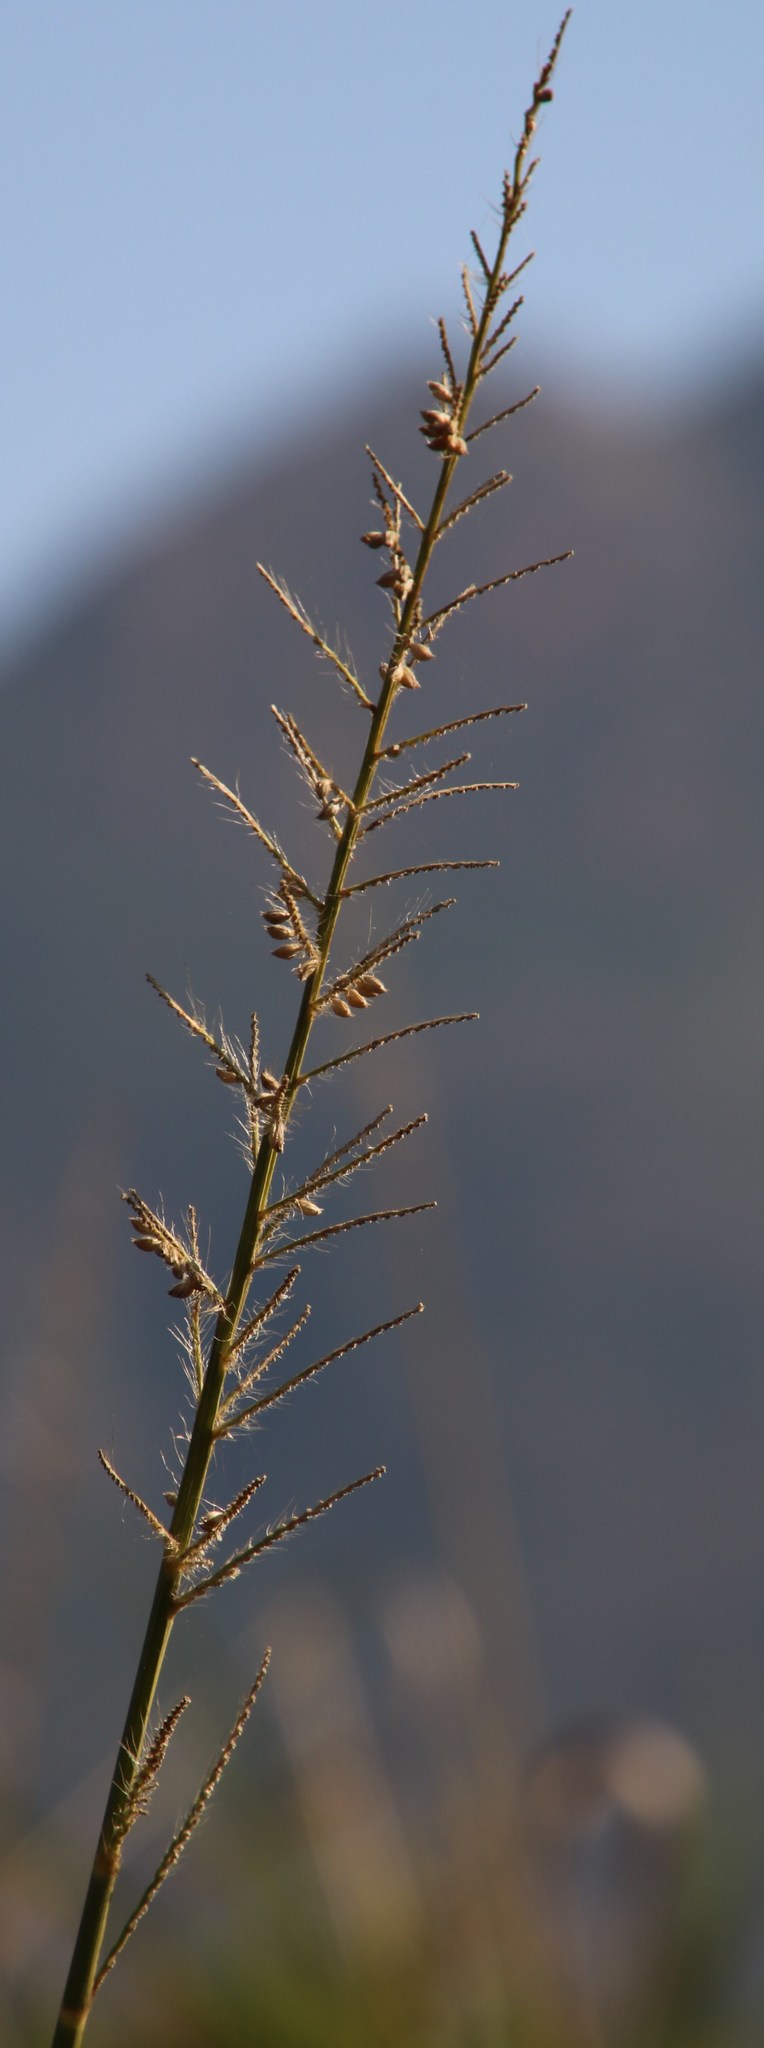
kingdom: Plantae
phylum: Tracheophyta
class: Liliopsida
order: Poales
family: Poaceae
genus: Echinochloa
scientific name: Echinochloa pyramidalis
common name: Antelope grass
